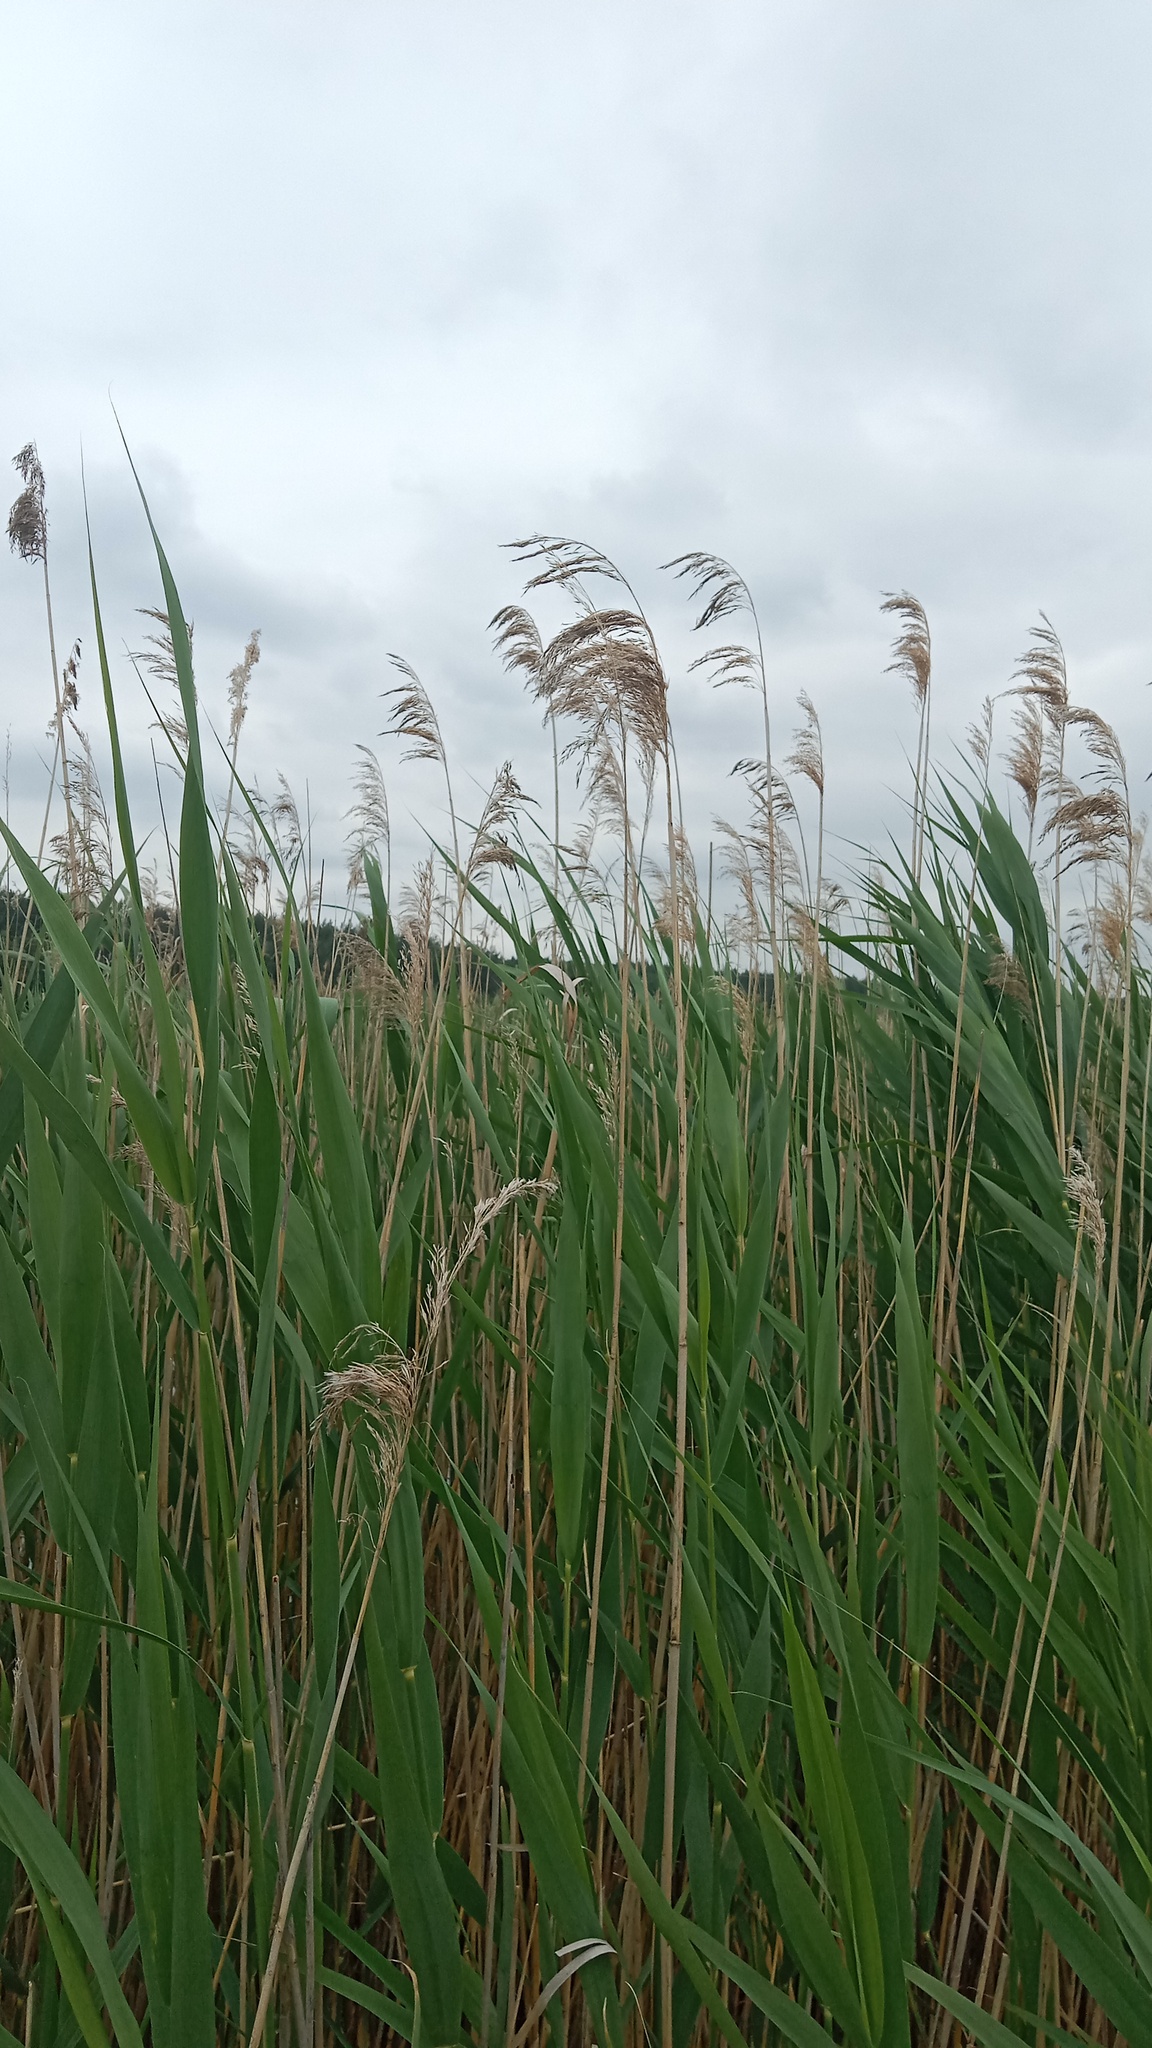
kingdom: Plantae
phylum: Tracheophyta
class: Liliopsida
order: Poales
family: Poaceae
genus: Phragmites
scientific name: Phragmites australis
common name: Common reed
